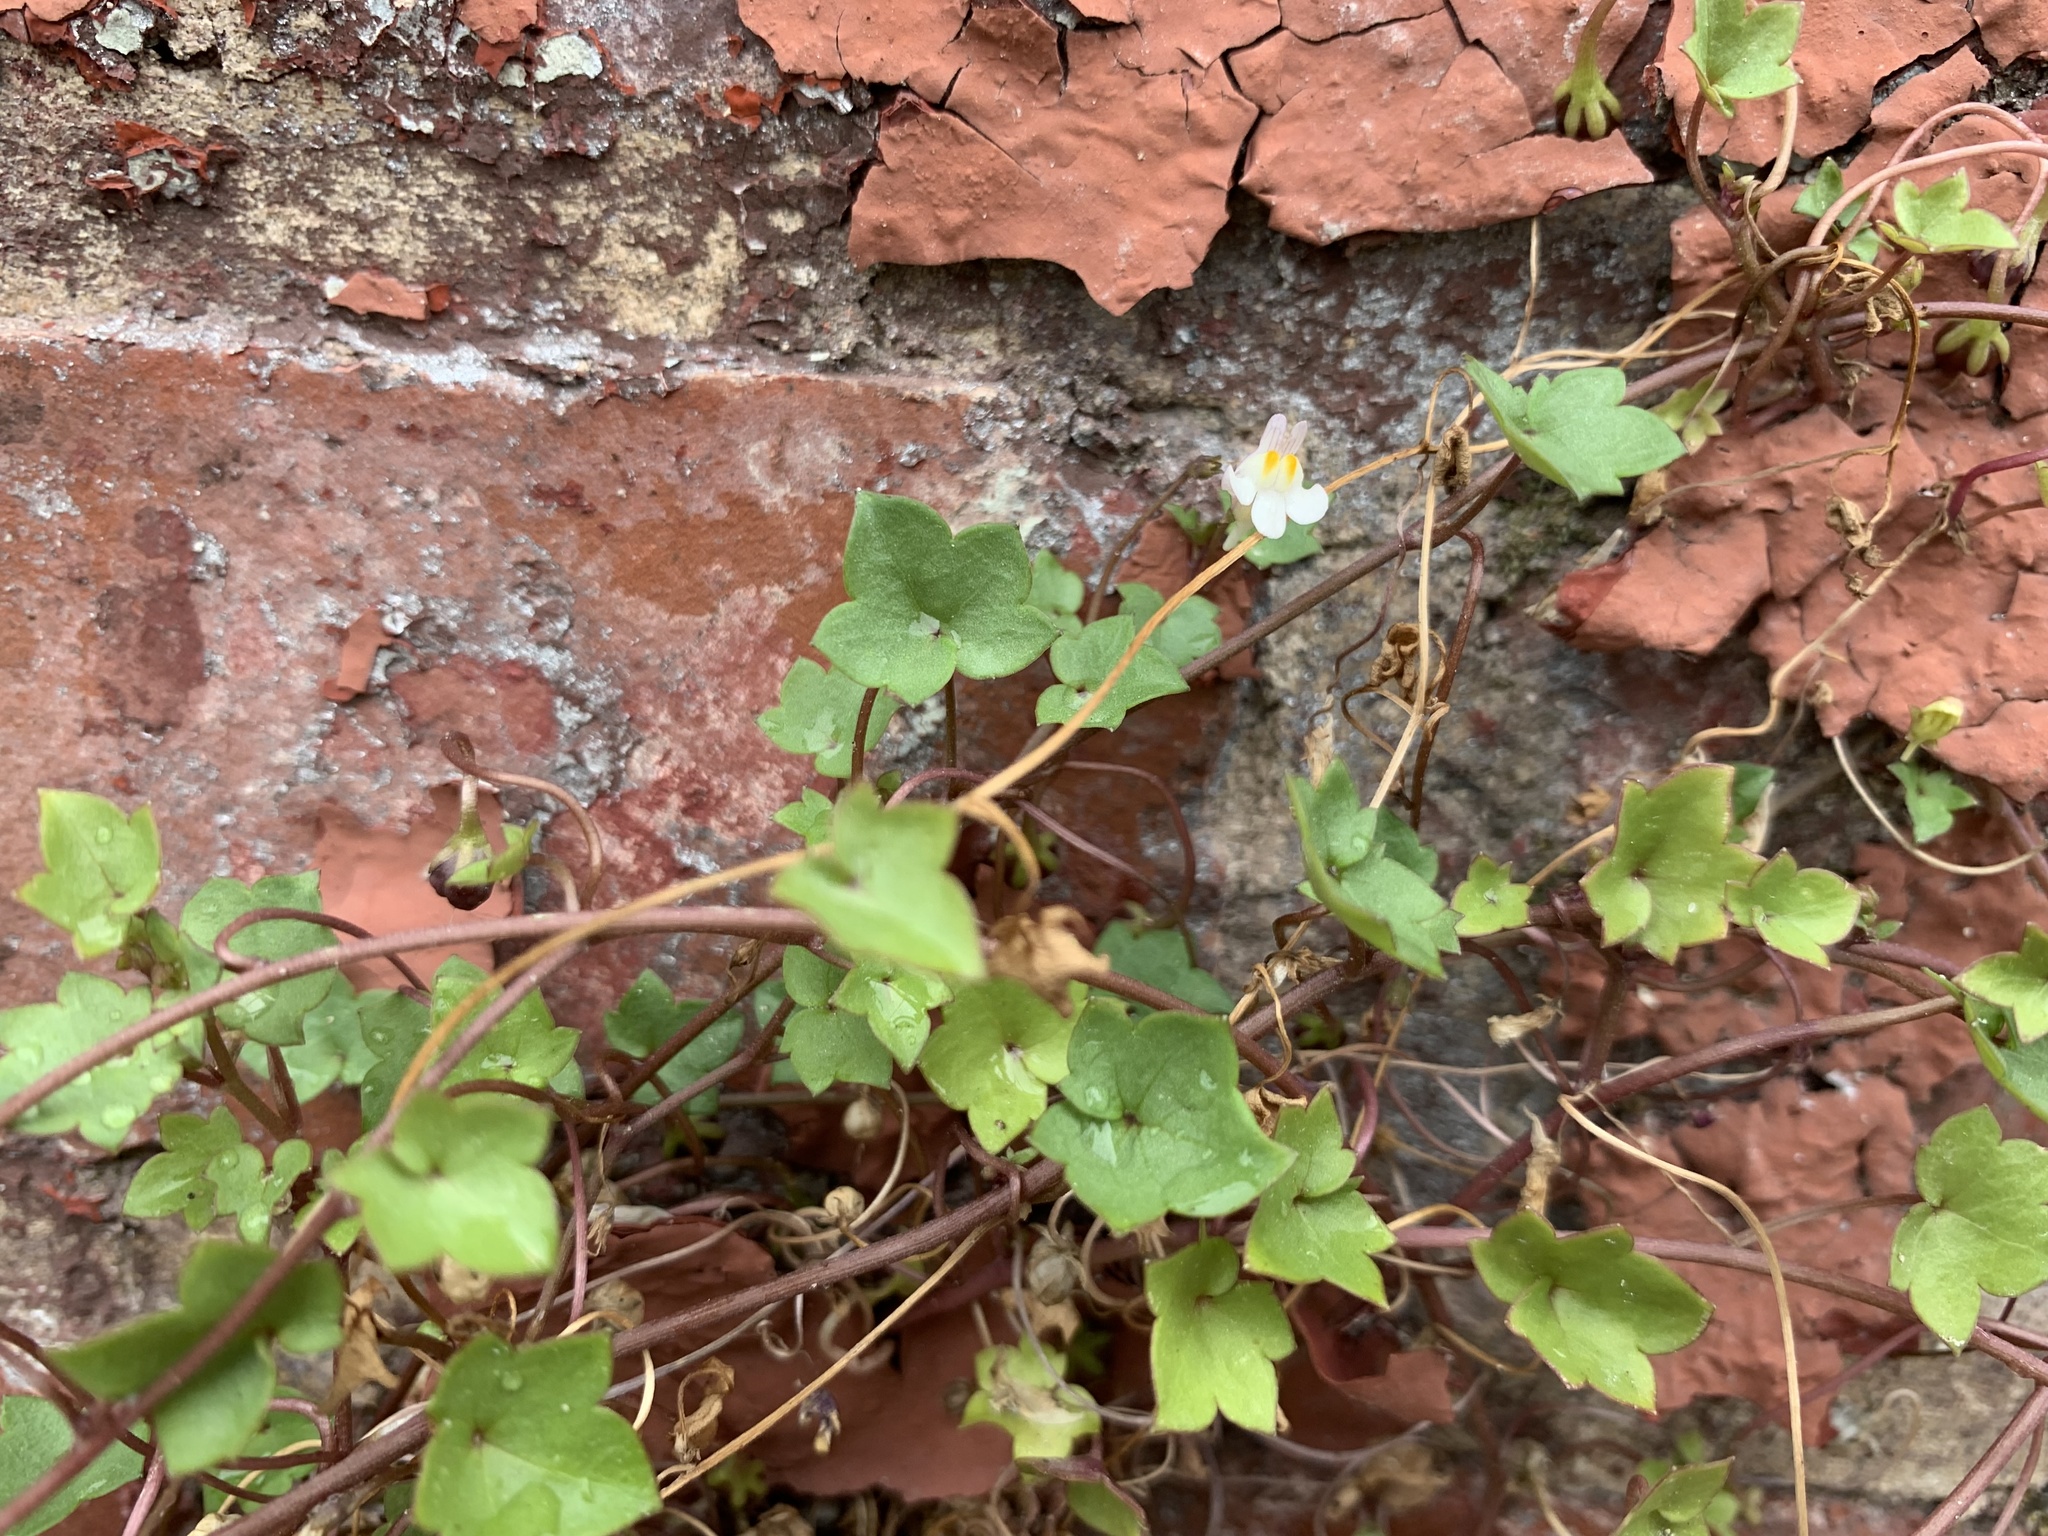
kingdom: Plantae
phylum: Tracheophyta
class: Magnoliopsida
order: Lamiales
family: Plantaginaceae
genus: Cymbalaria
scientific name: Cymbalaria muralis
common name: Ivy-leaved toadflax
